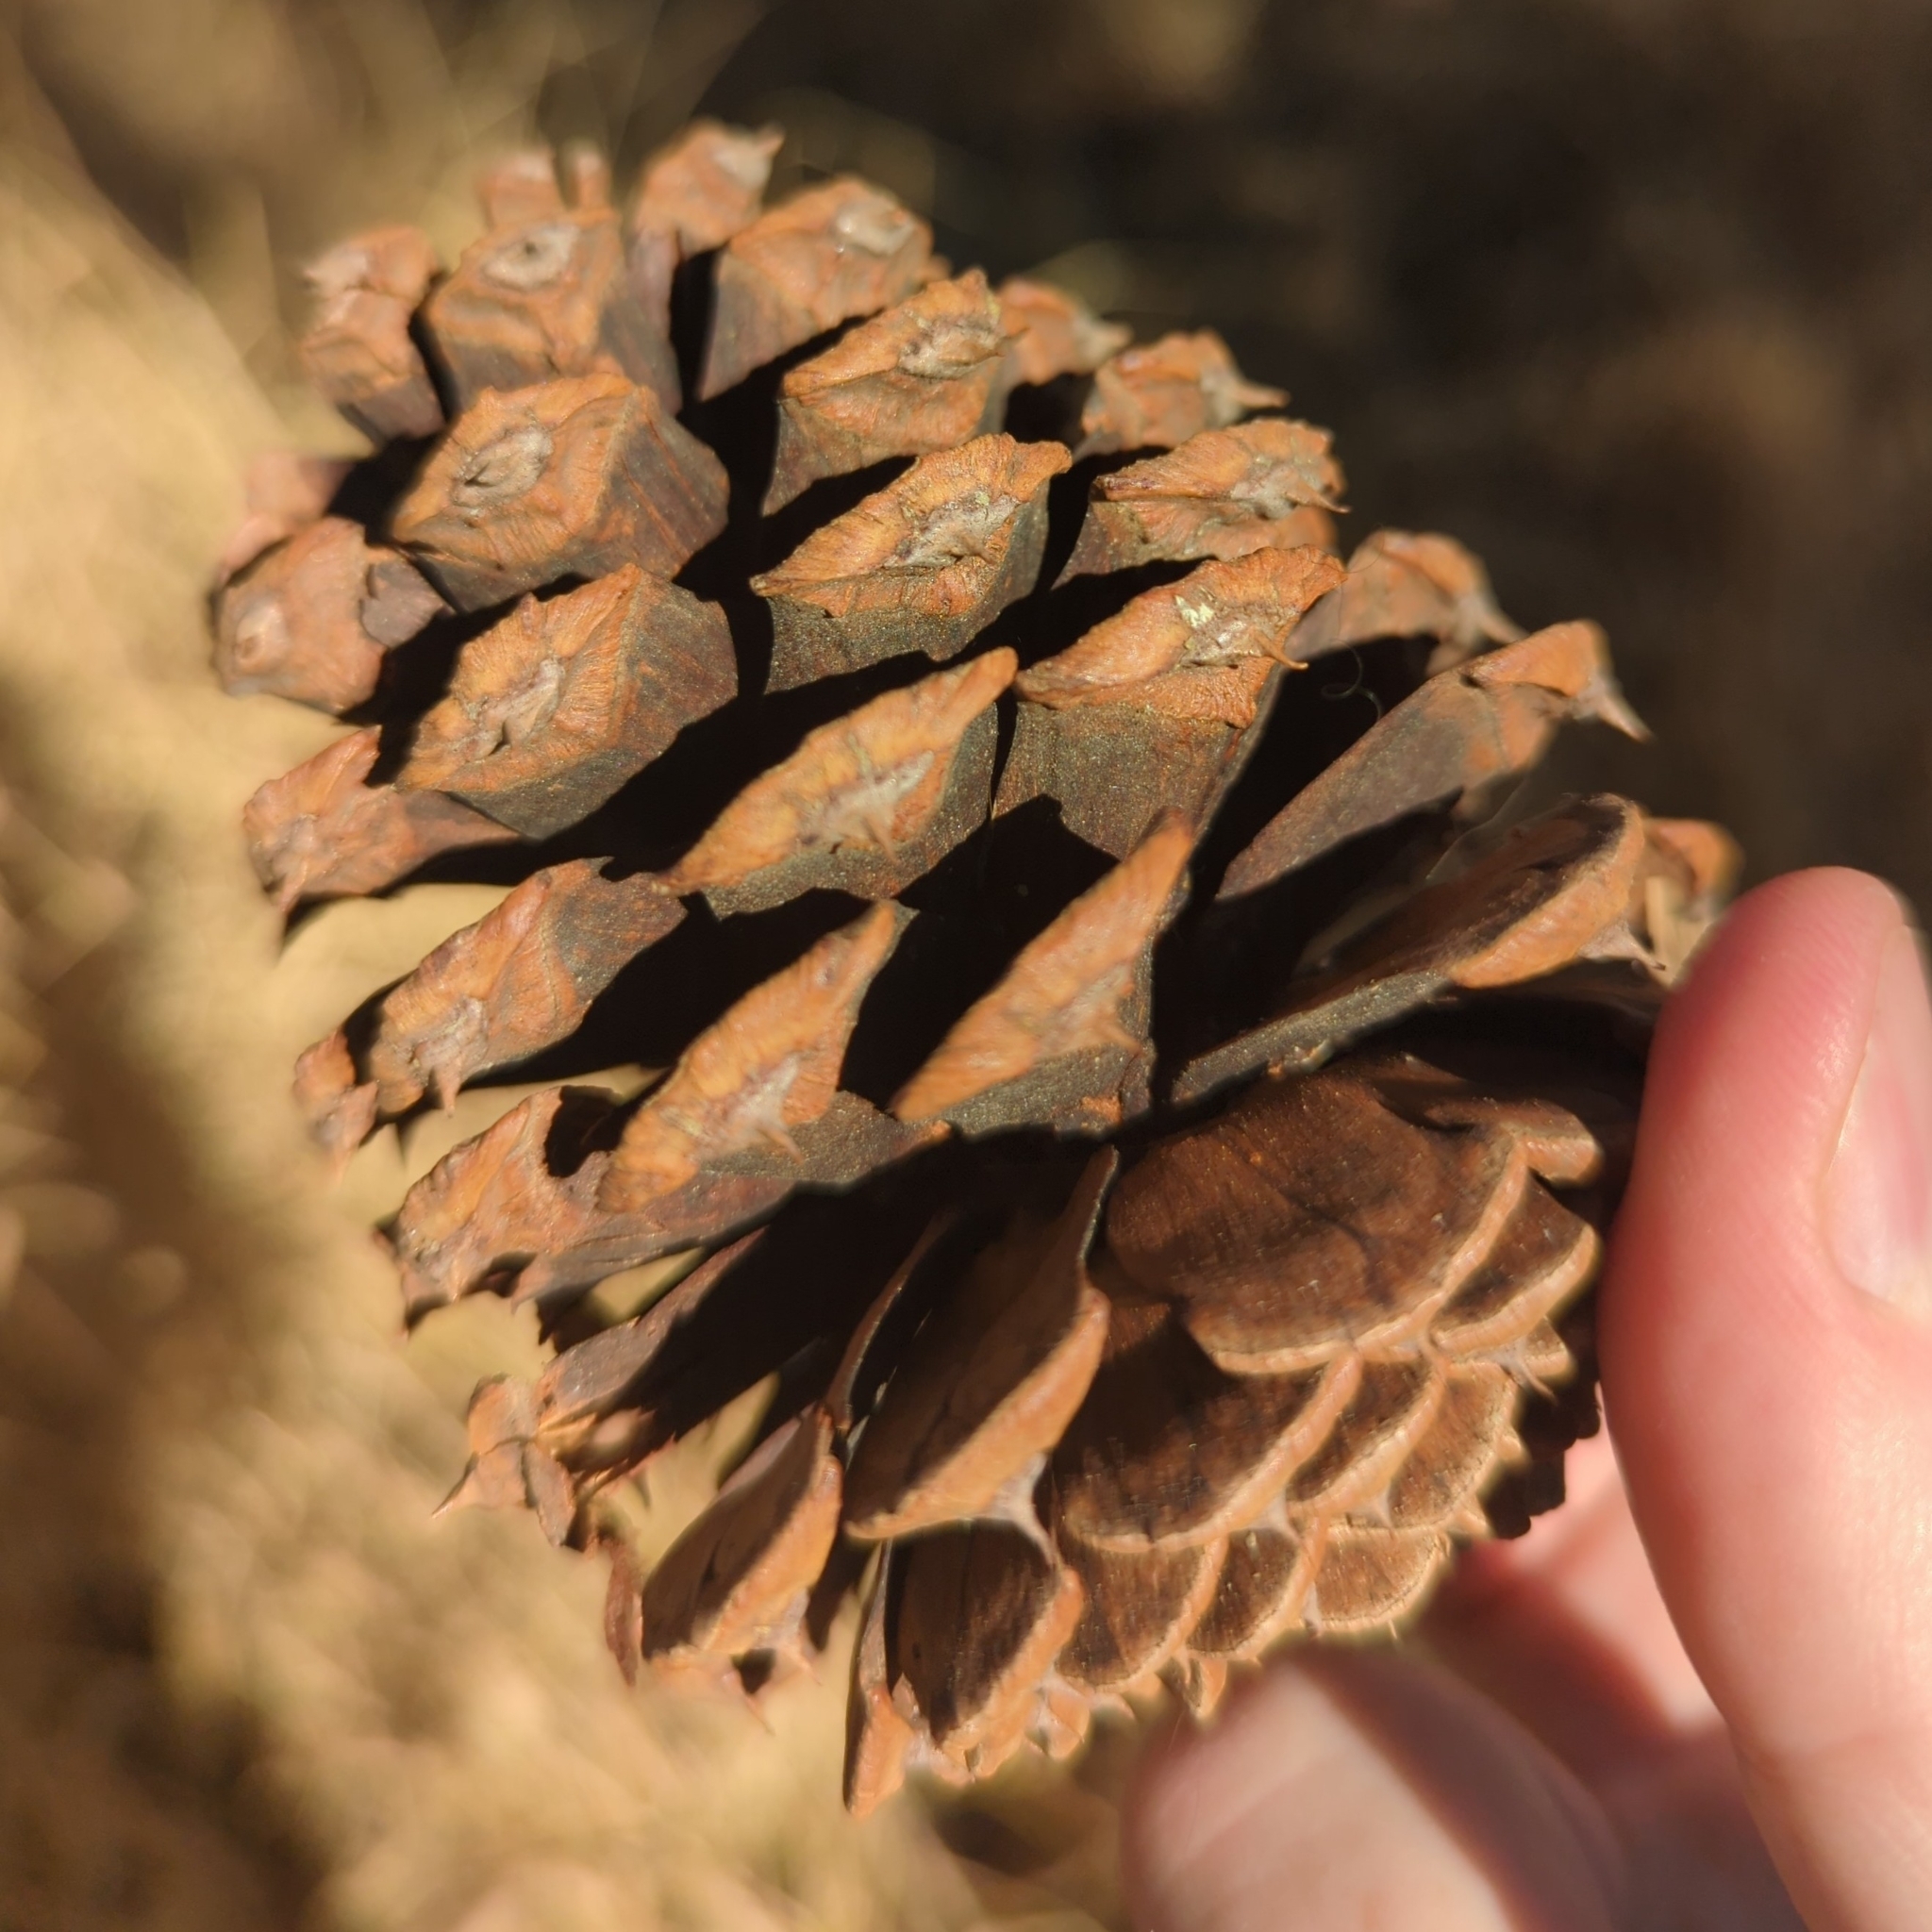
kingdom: Plantae
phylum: Tracheophyta
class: Pinopsida
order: Pinales
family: Pinaceae
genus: Pinus
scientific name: Pinus ponderosa
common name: Western yellow-pine
